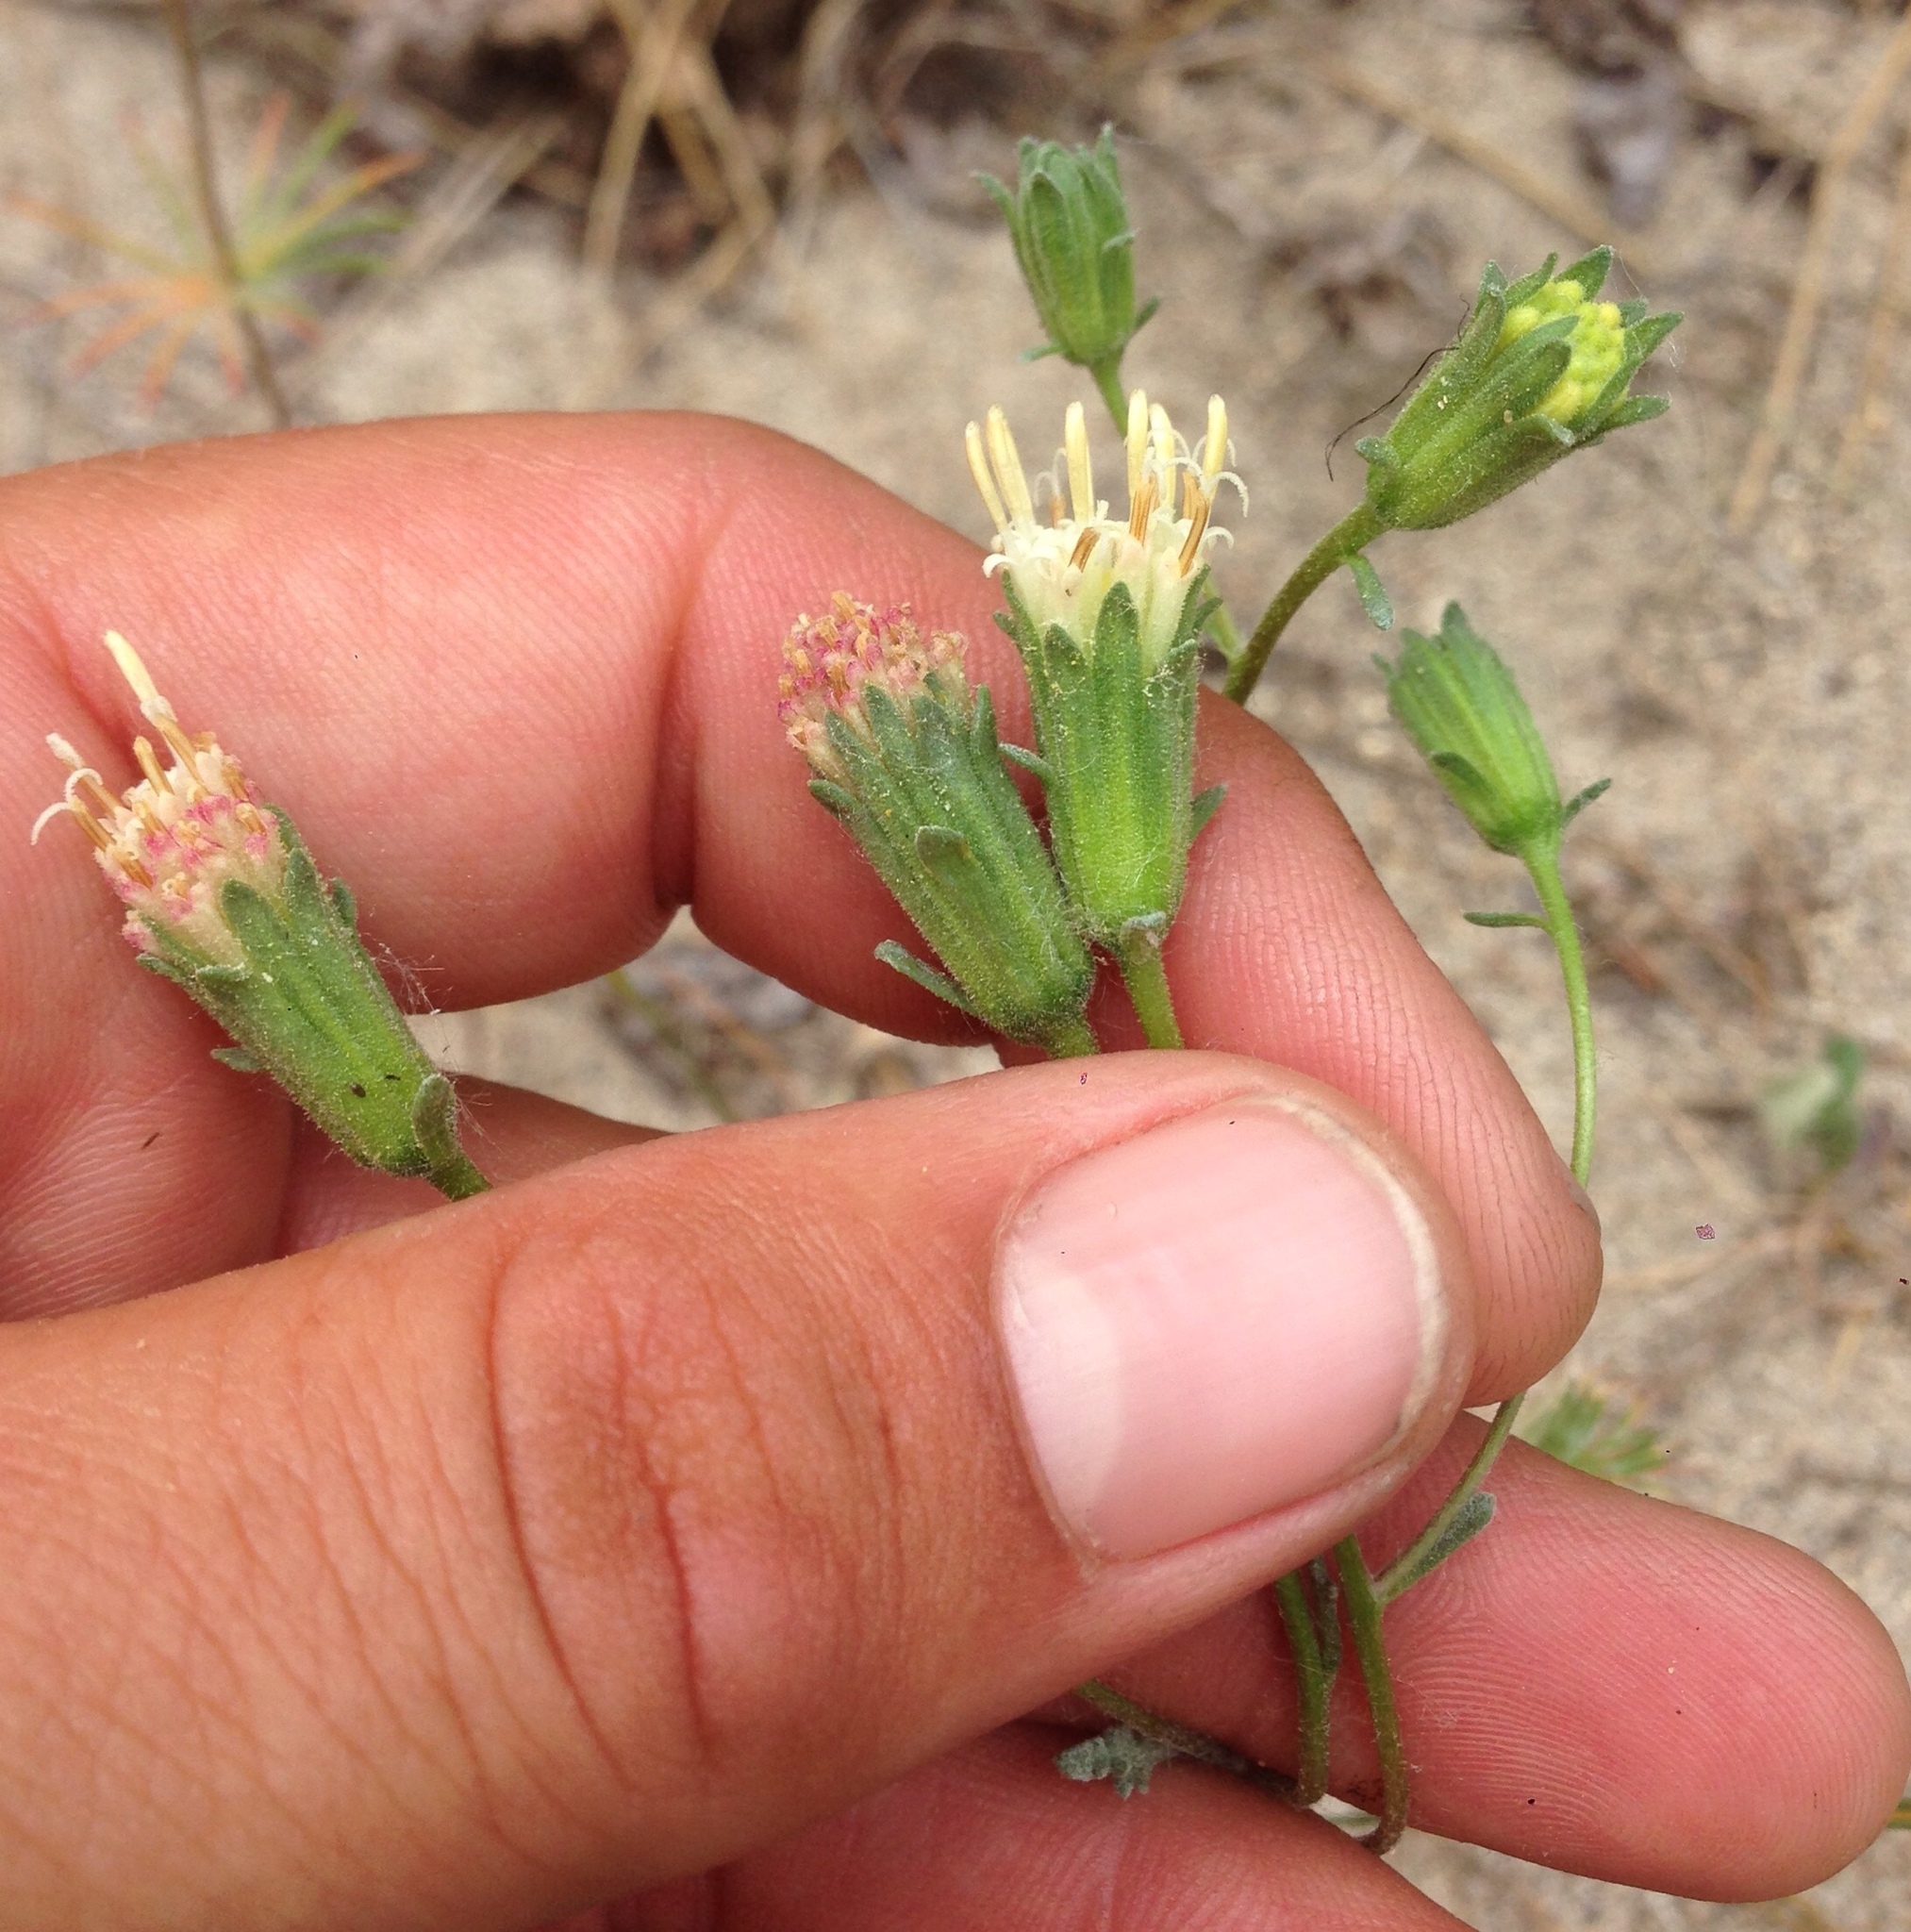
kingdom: Plantae
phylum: Tracheophyta
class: Magnoliopsida
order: Asterales
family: Asteraceae
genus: Chaenactis
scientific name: Chaenactis douglasii
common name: Hoary pincushion
